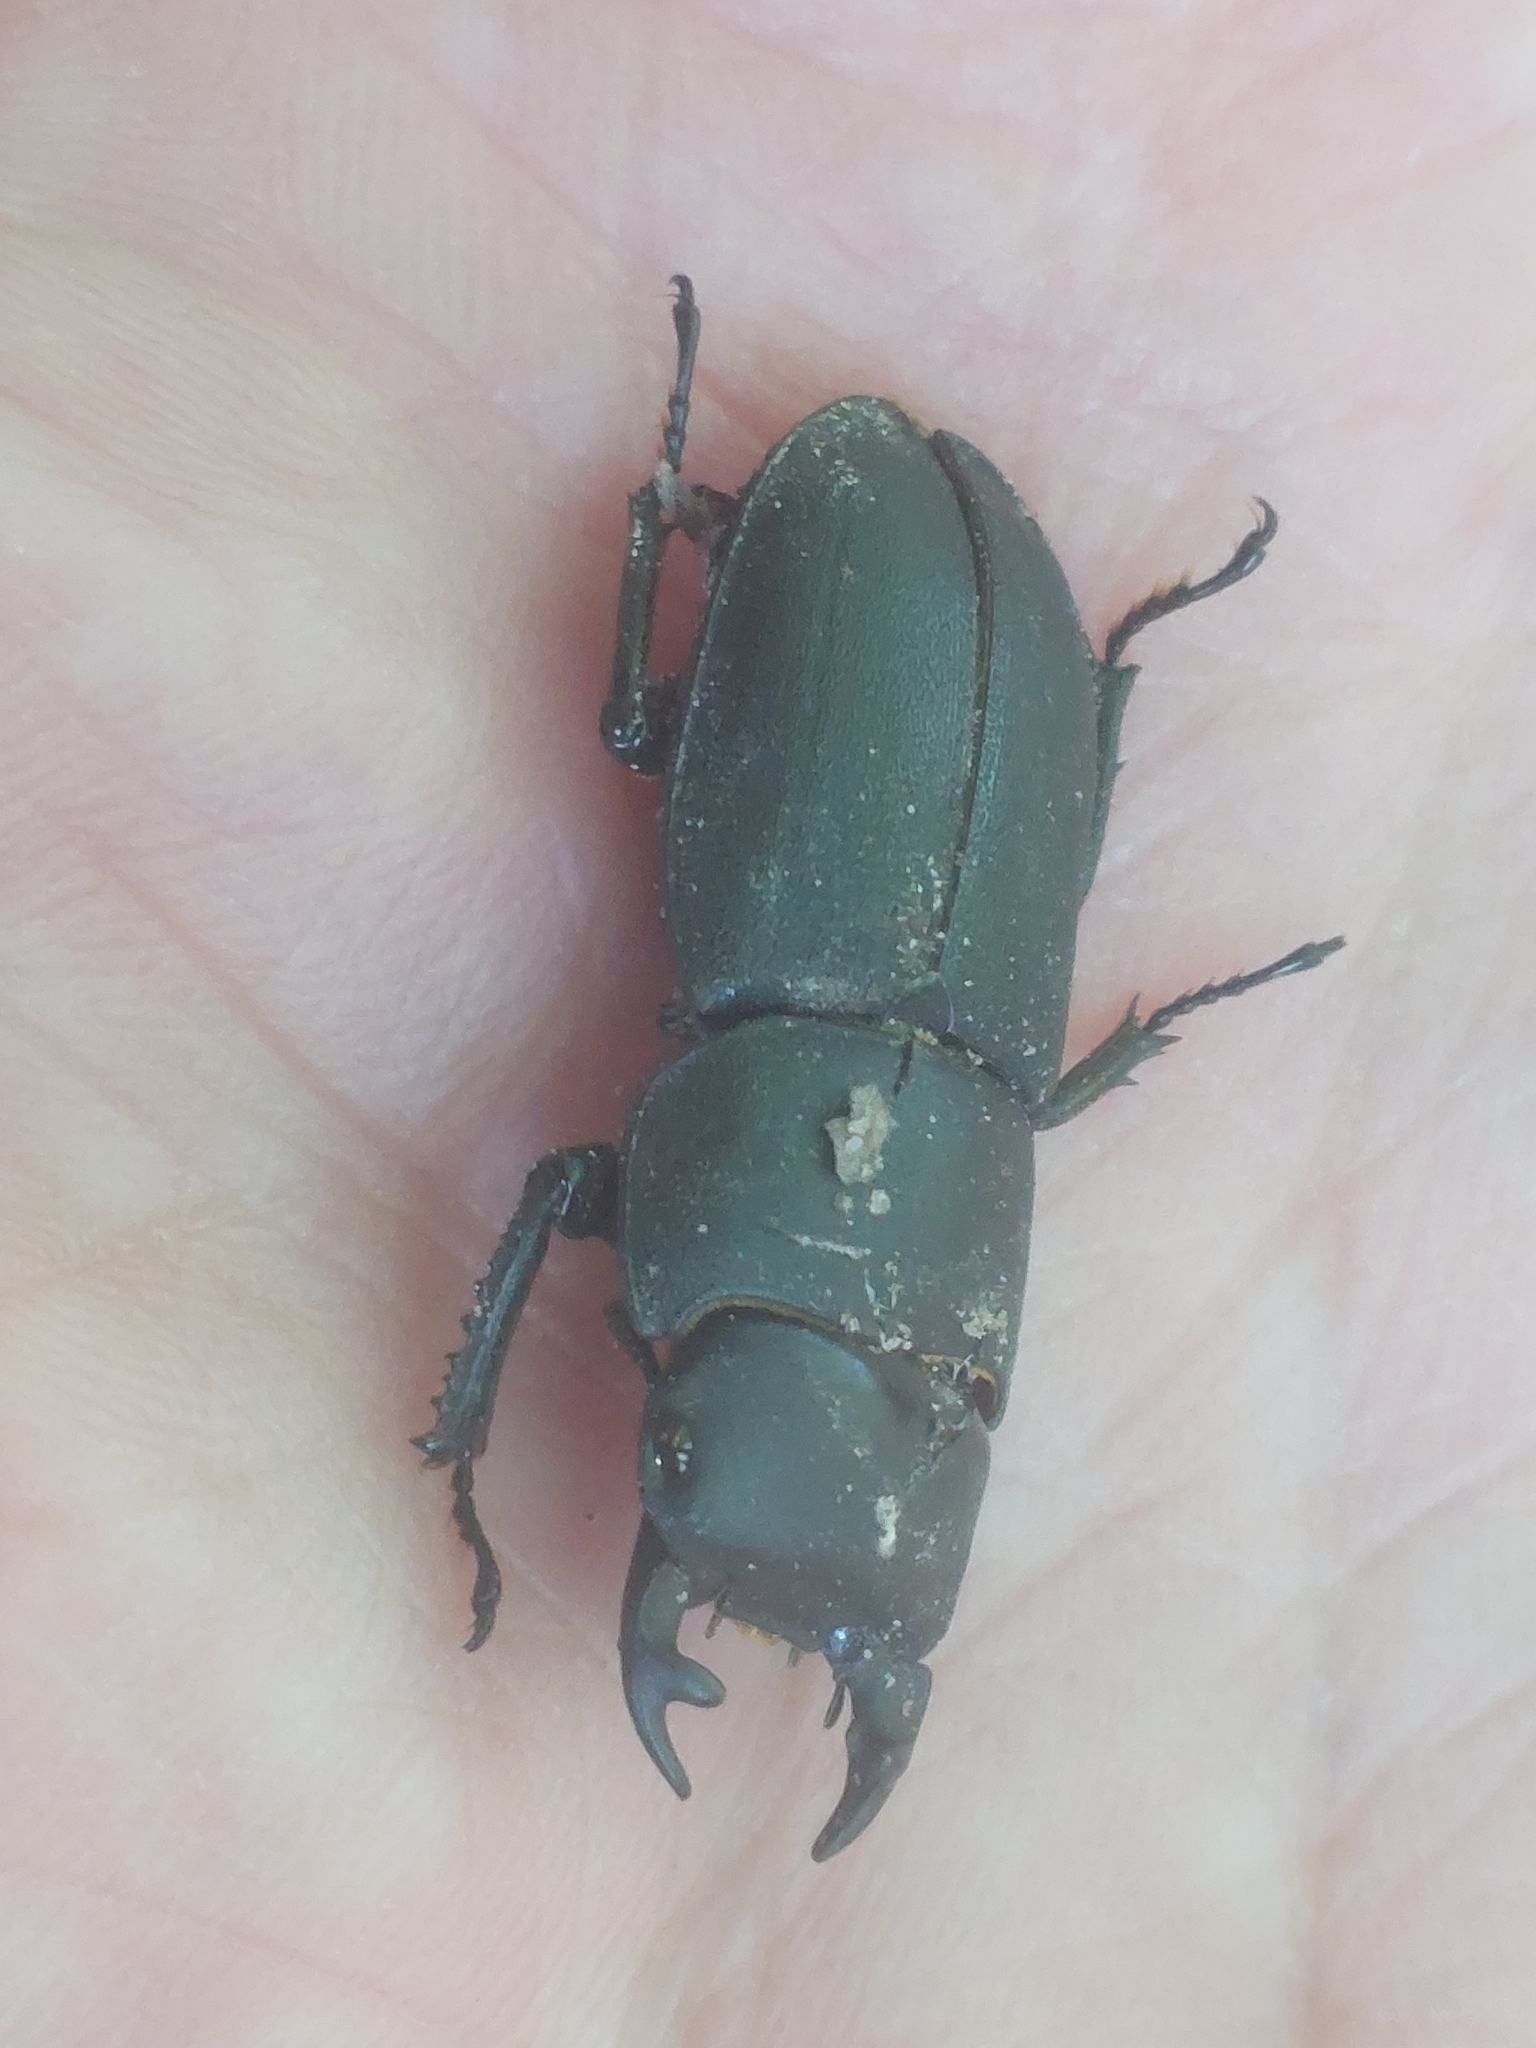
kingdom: Animalia
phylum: Arthropoda
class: Insecta
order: Coleoptera
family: Lucanidae
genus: Dorcus
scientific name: Dorcus parallelipipedus
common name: Lesser stag beetle
